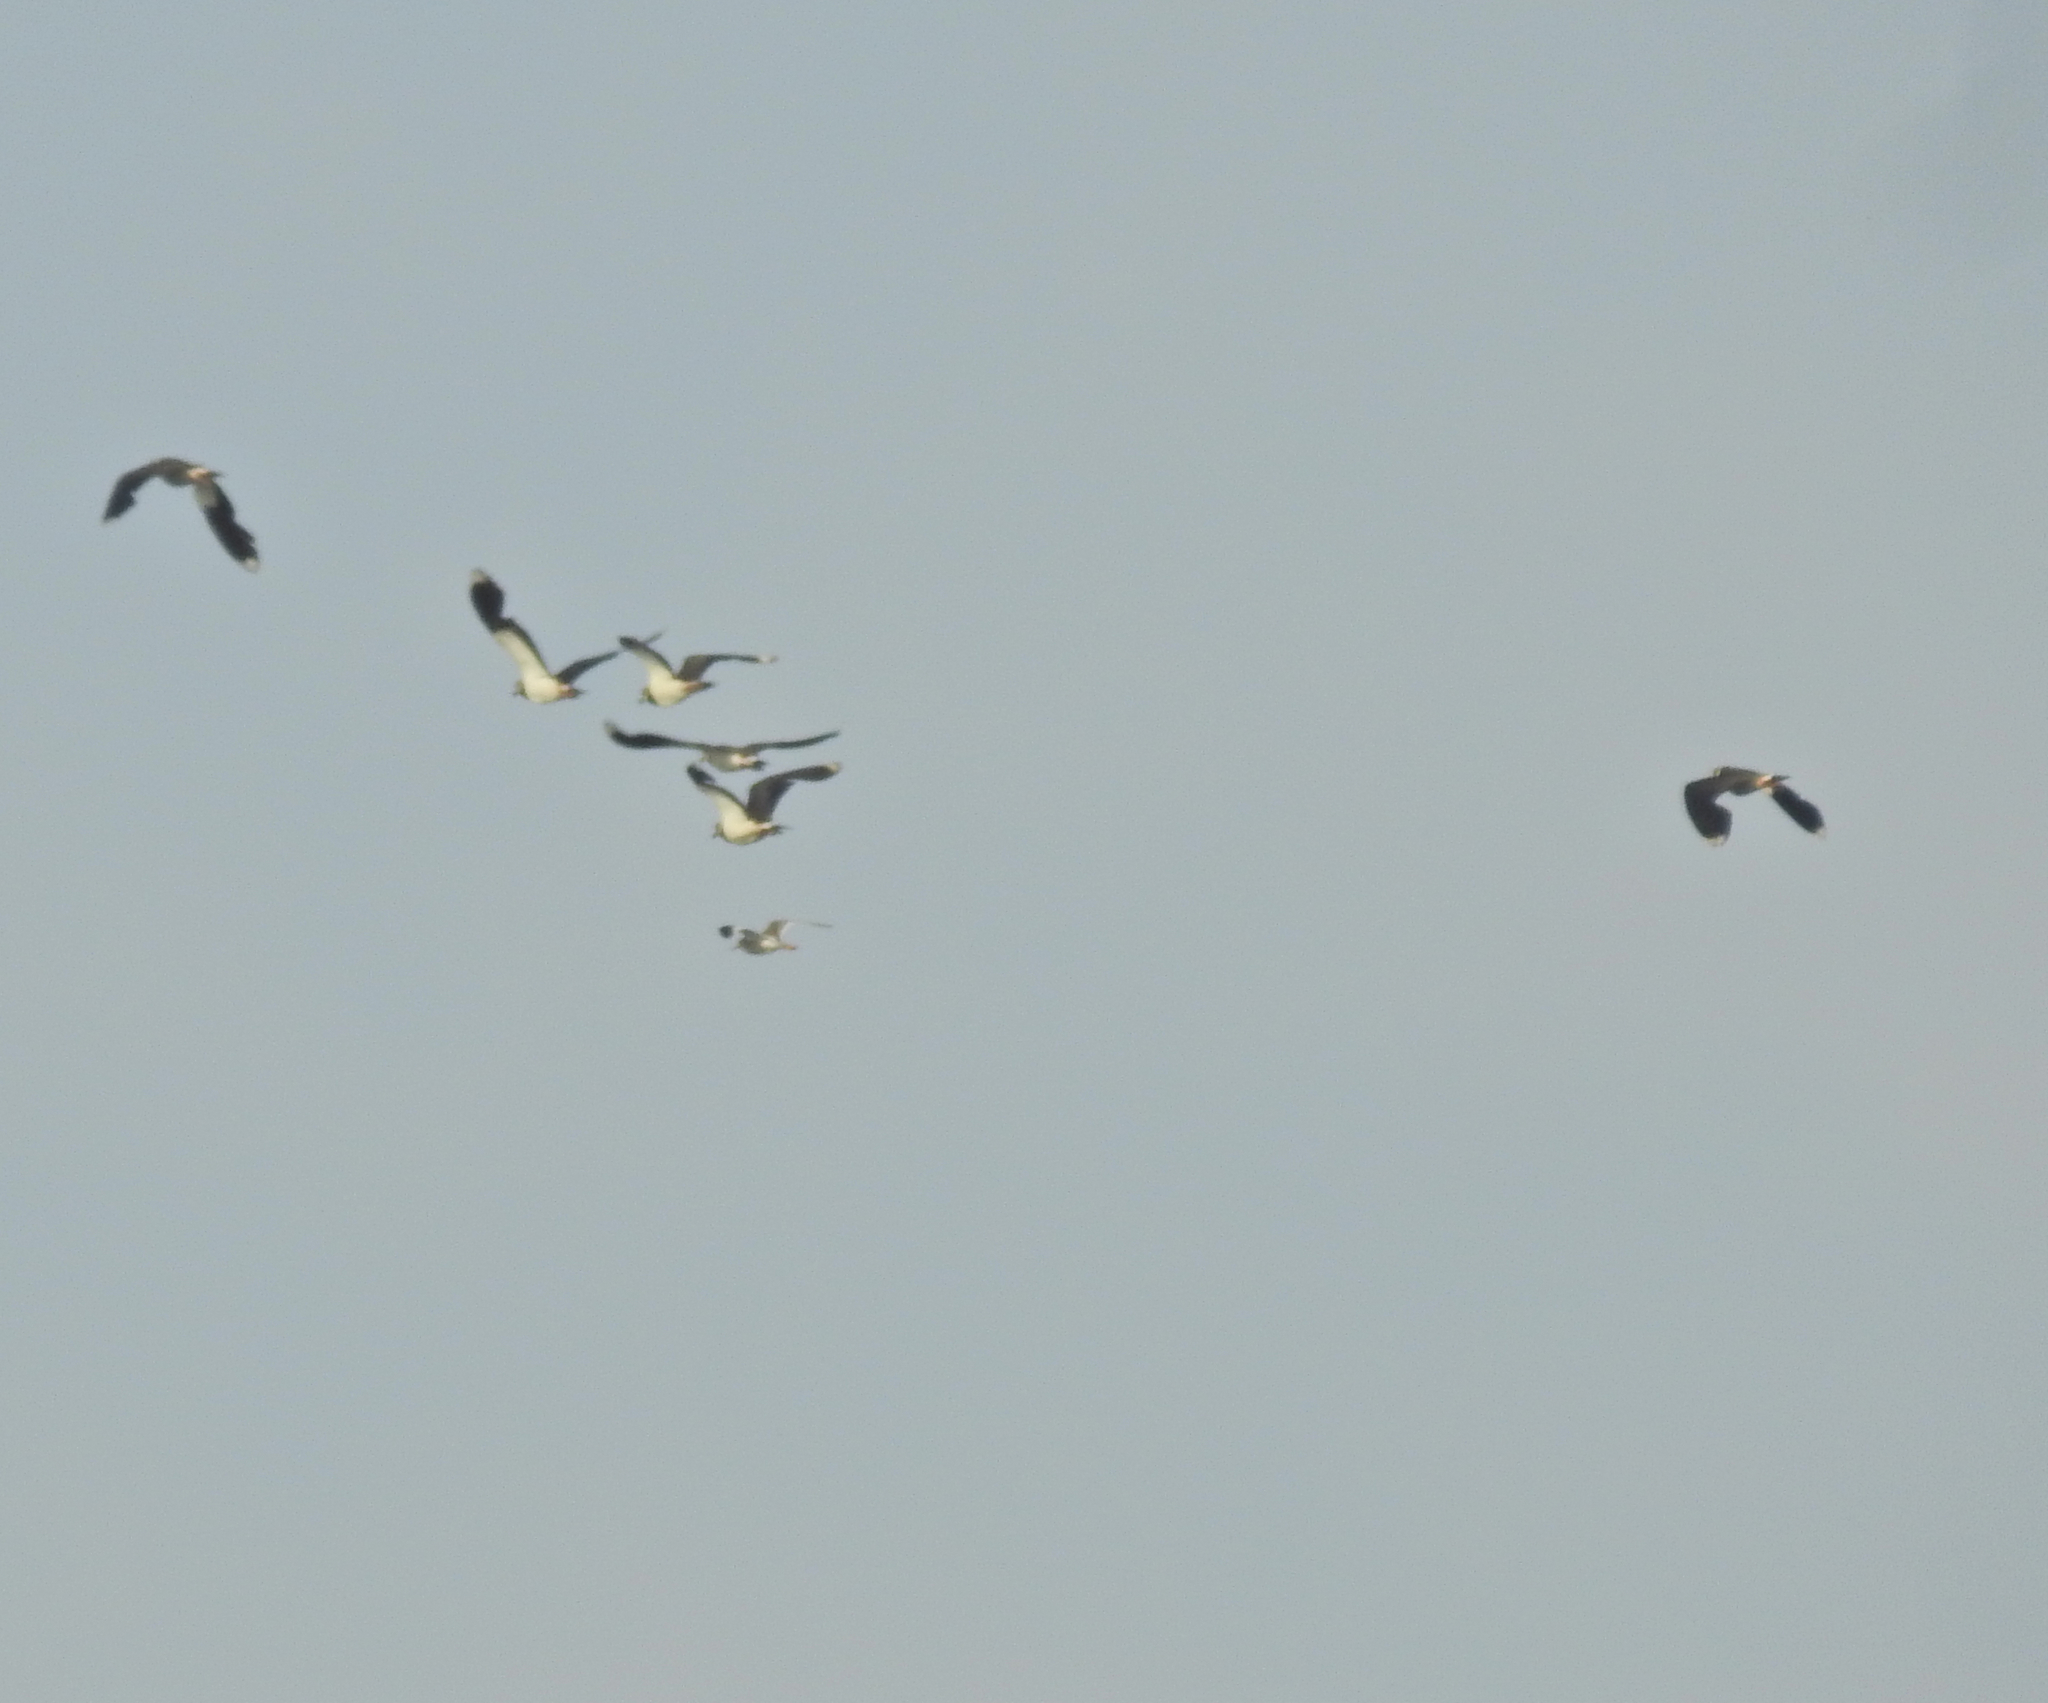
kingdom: Animalia
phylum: Chordata
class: Aves
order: Charadriiformes
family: Charadriidae
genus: Vanellus
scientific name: Vanellus vanellus
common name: Northern lapwing
